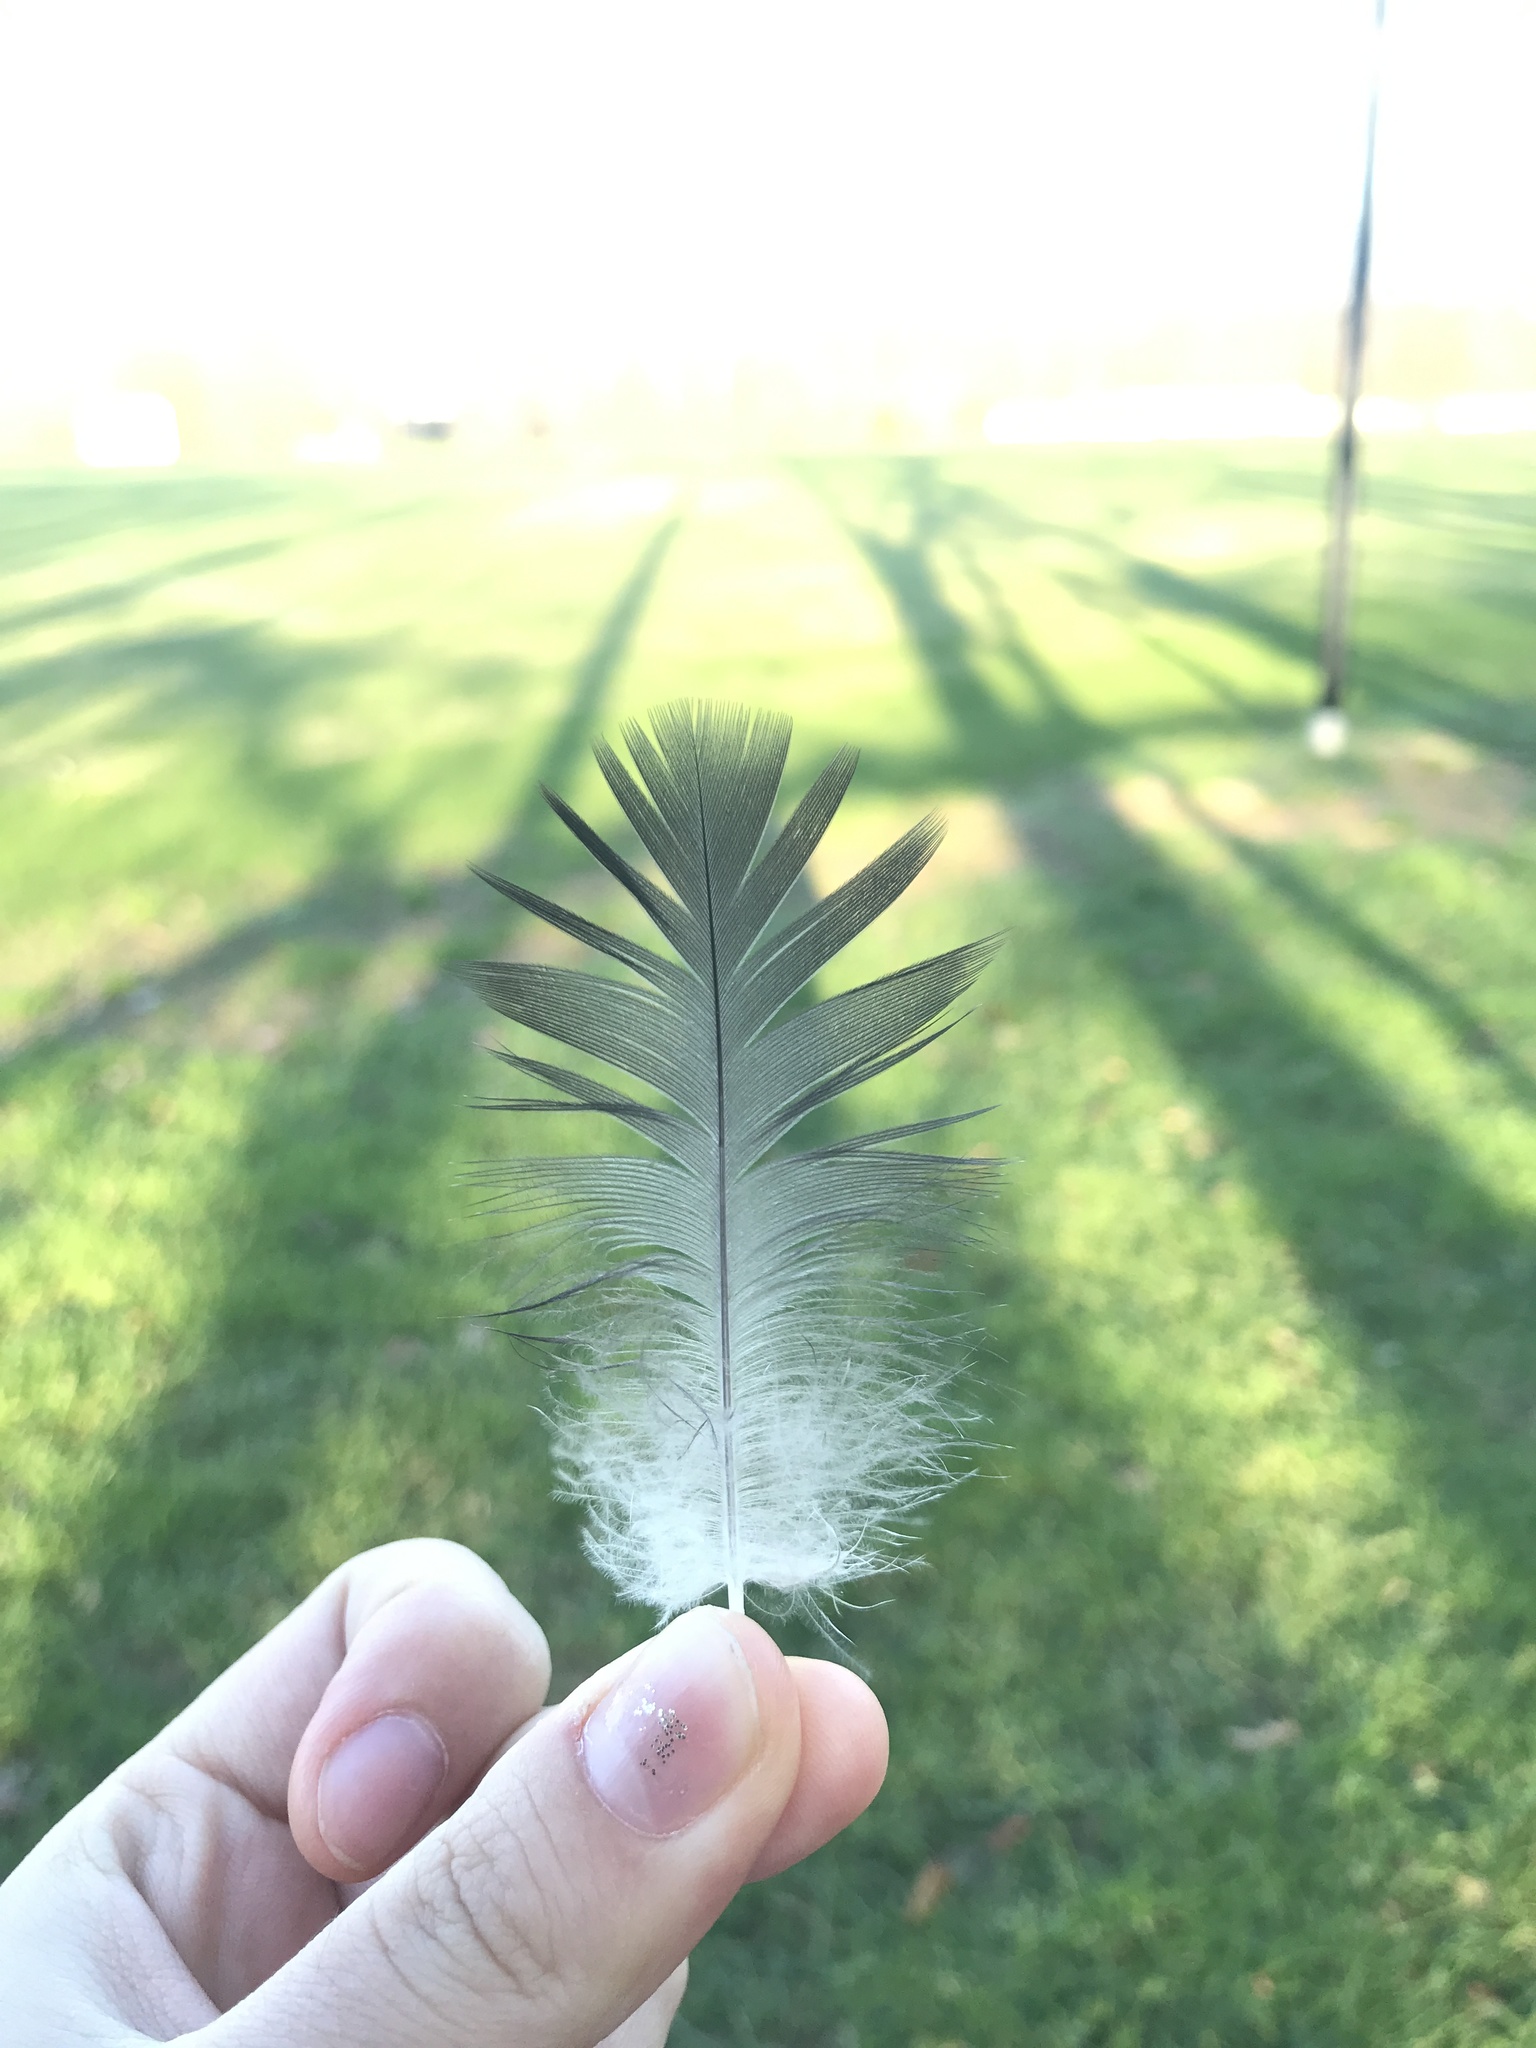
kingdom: Animalia
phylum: Chordata
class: Aves
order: Anseriformes
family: Anatidae
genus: Branta
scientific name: Branta canadensis
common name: Canada goose
